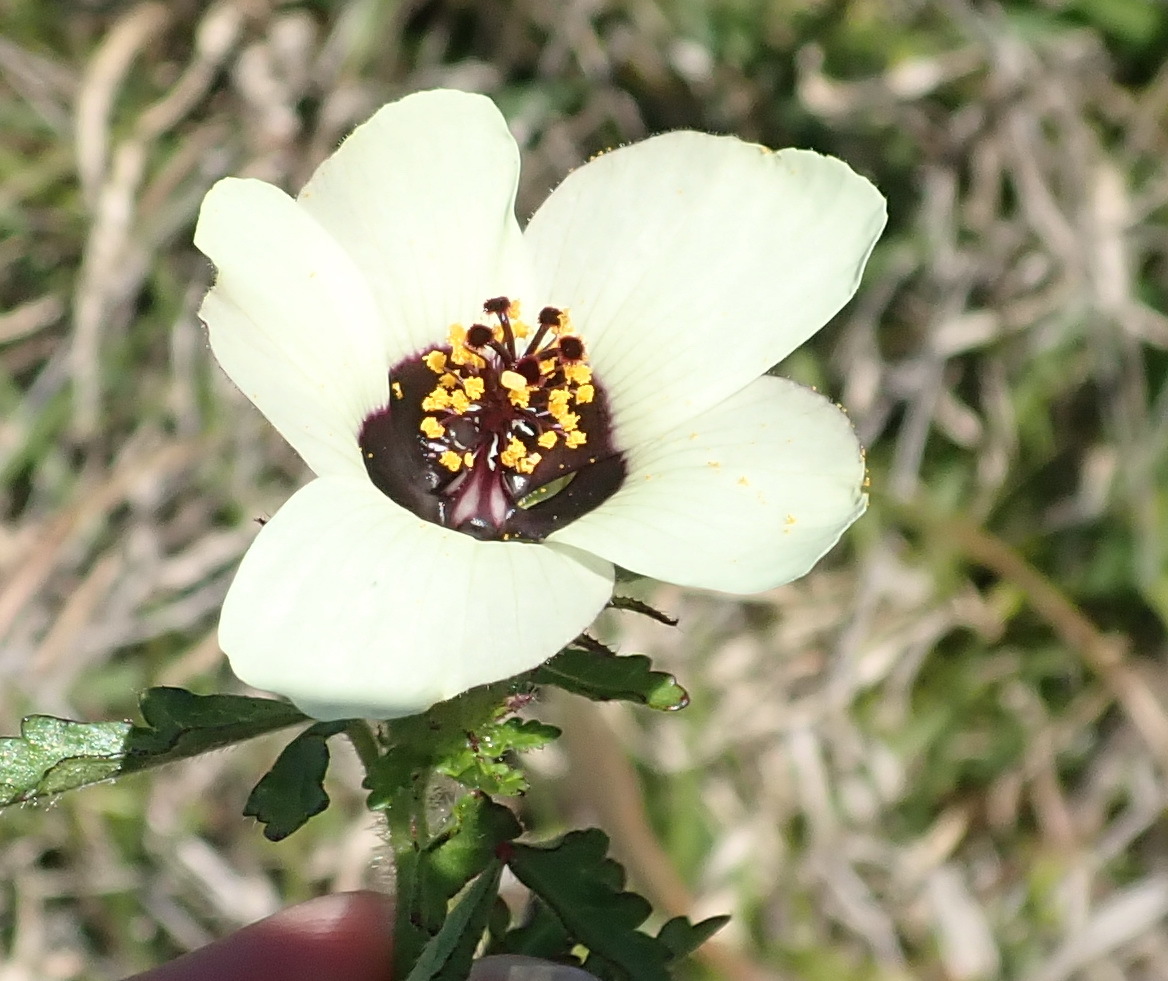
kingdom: Plantae
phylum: Tracheophyta
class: Magnoliopsida
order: Malvales
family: Malvaceae
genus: Hibiscus
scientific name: Hibiscus trionum
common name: Bladder ketmia
